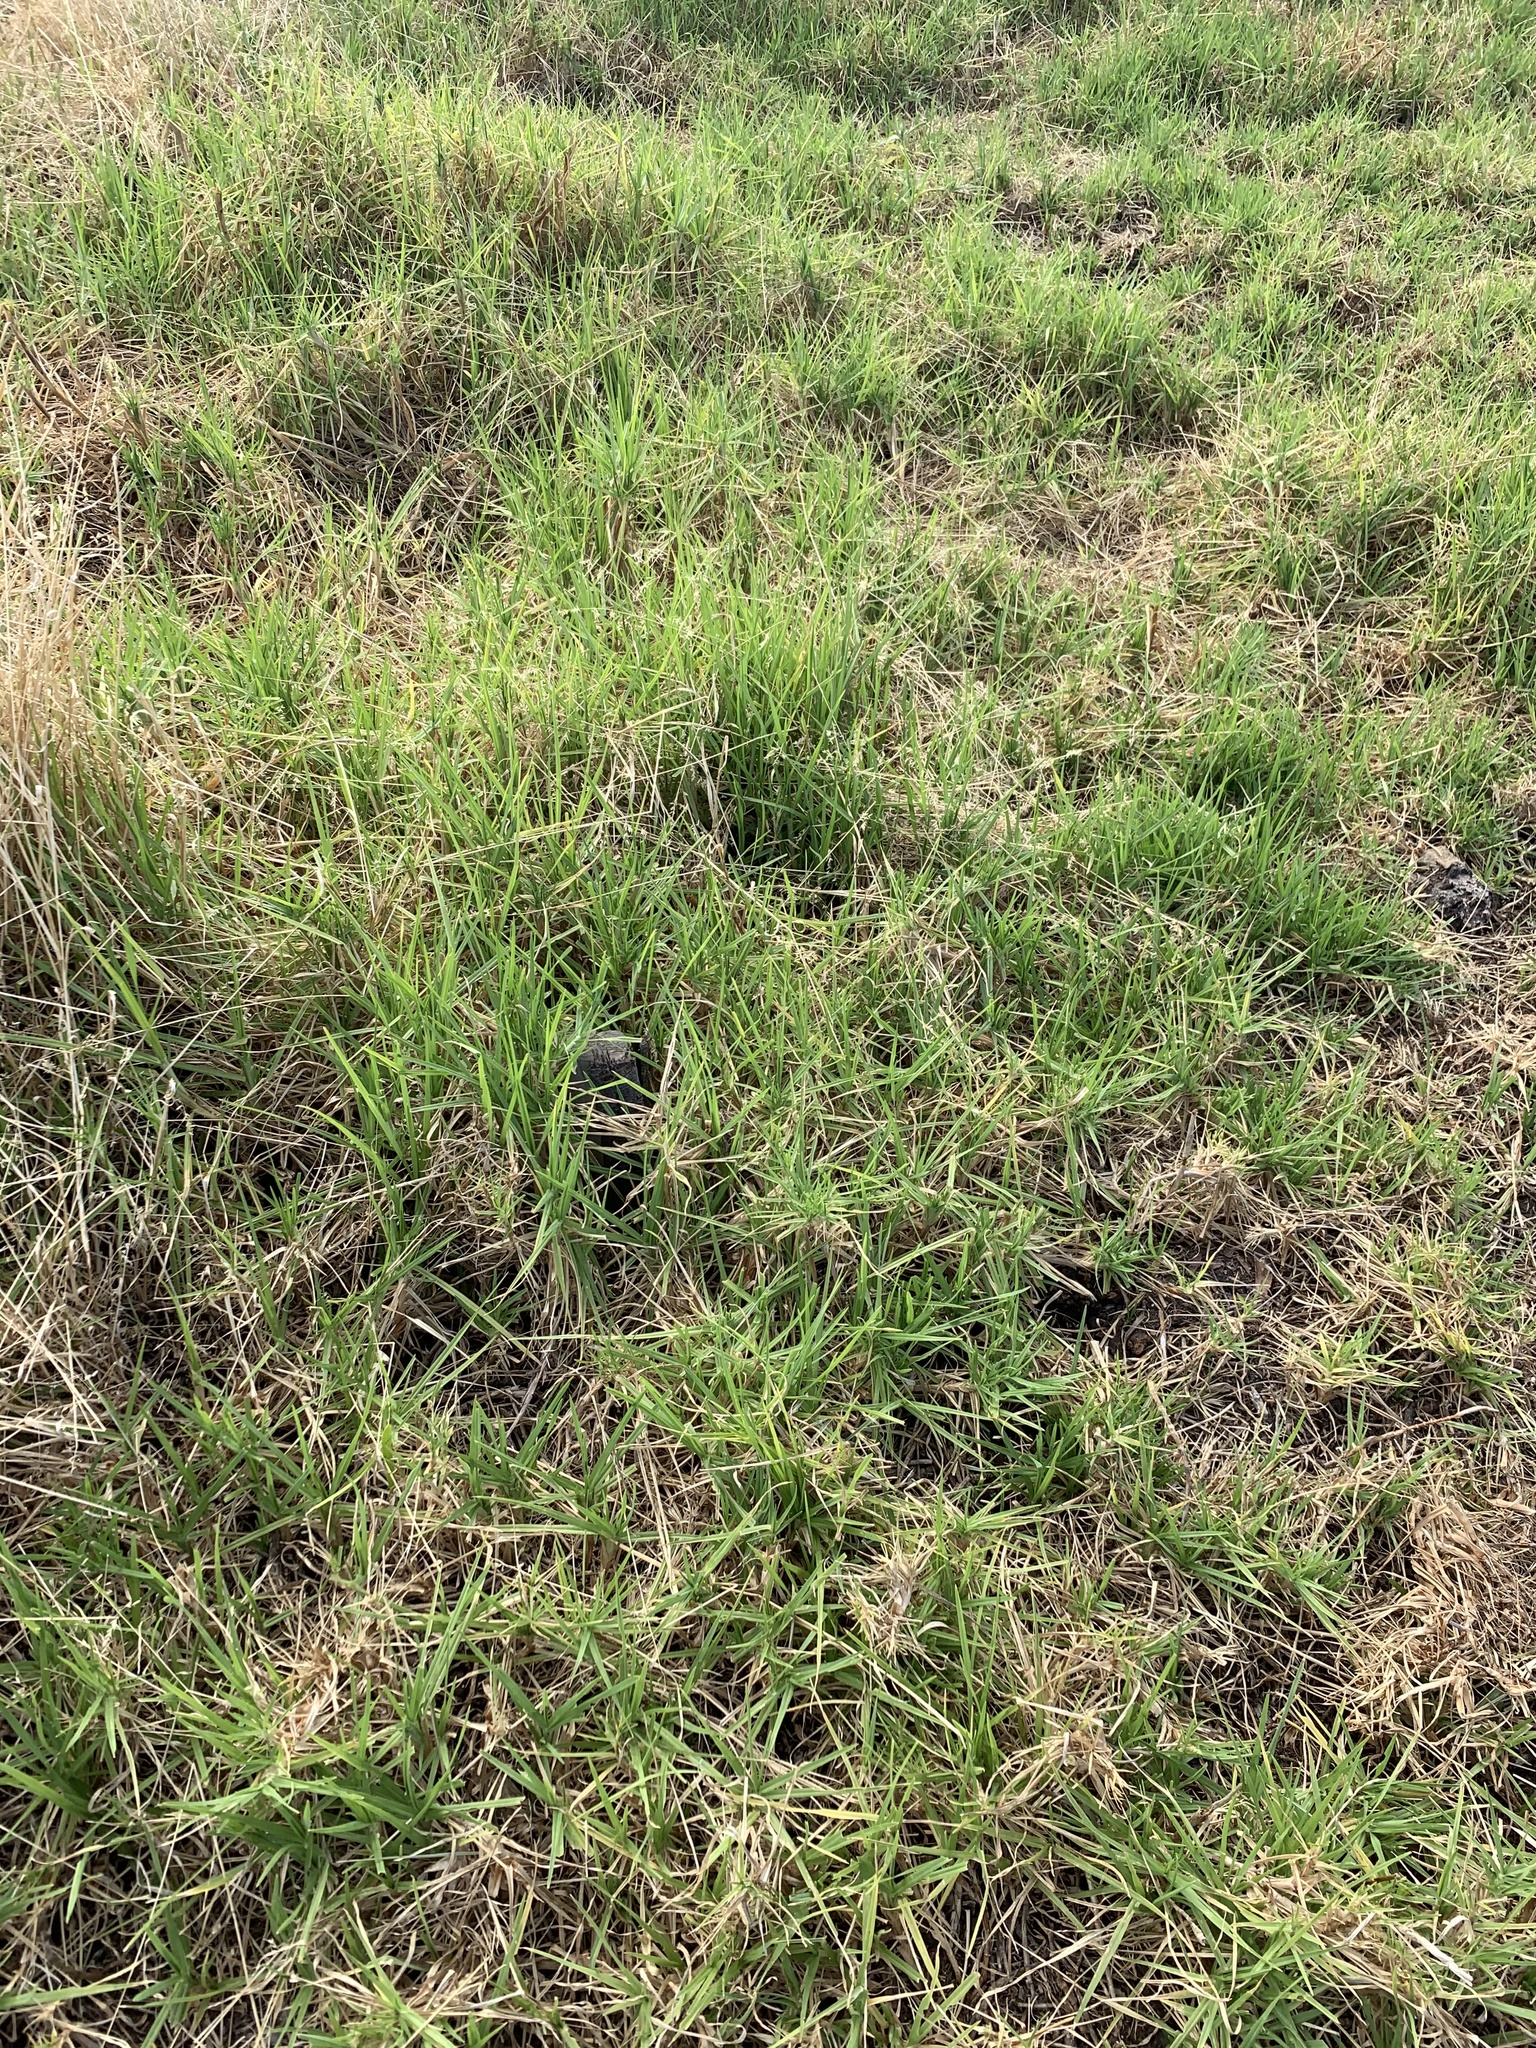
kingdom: Plantae
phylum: Tracheophyta
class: Liliopsida
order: Poales
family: Poaceae
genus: Cenchrus
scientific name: Cenchrus clandestinus
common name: Kikuyugrass
